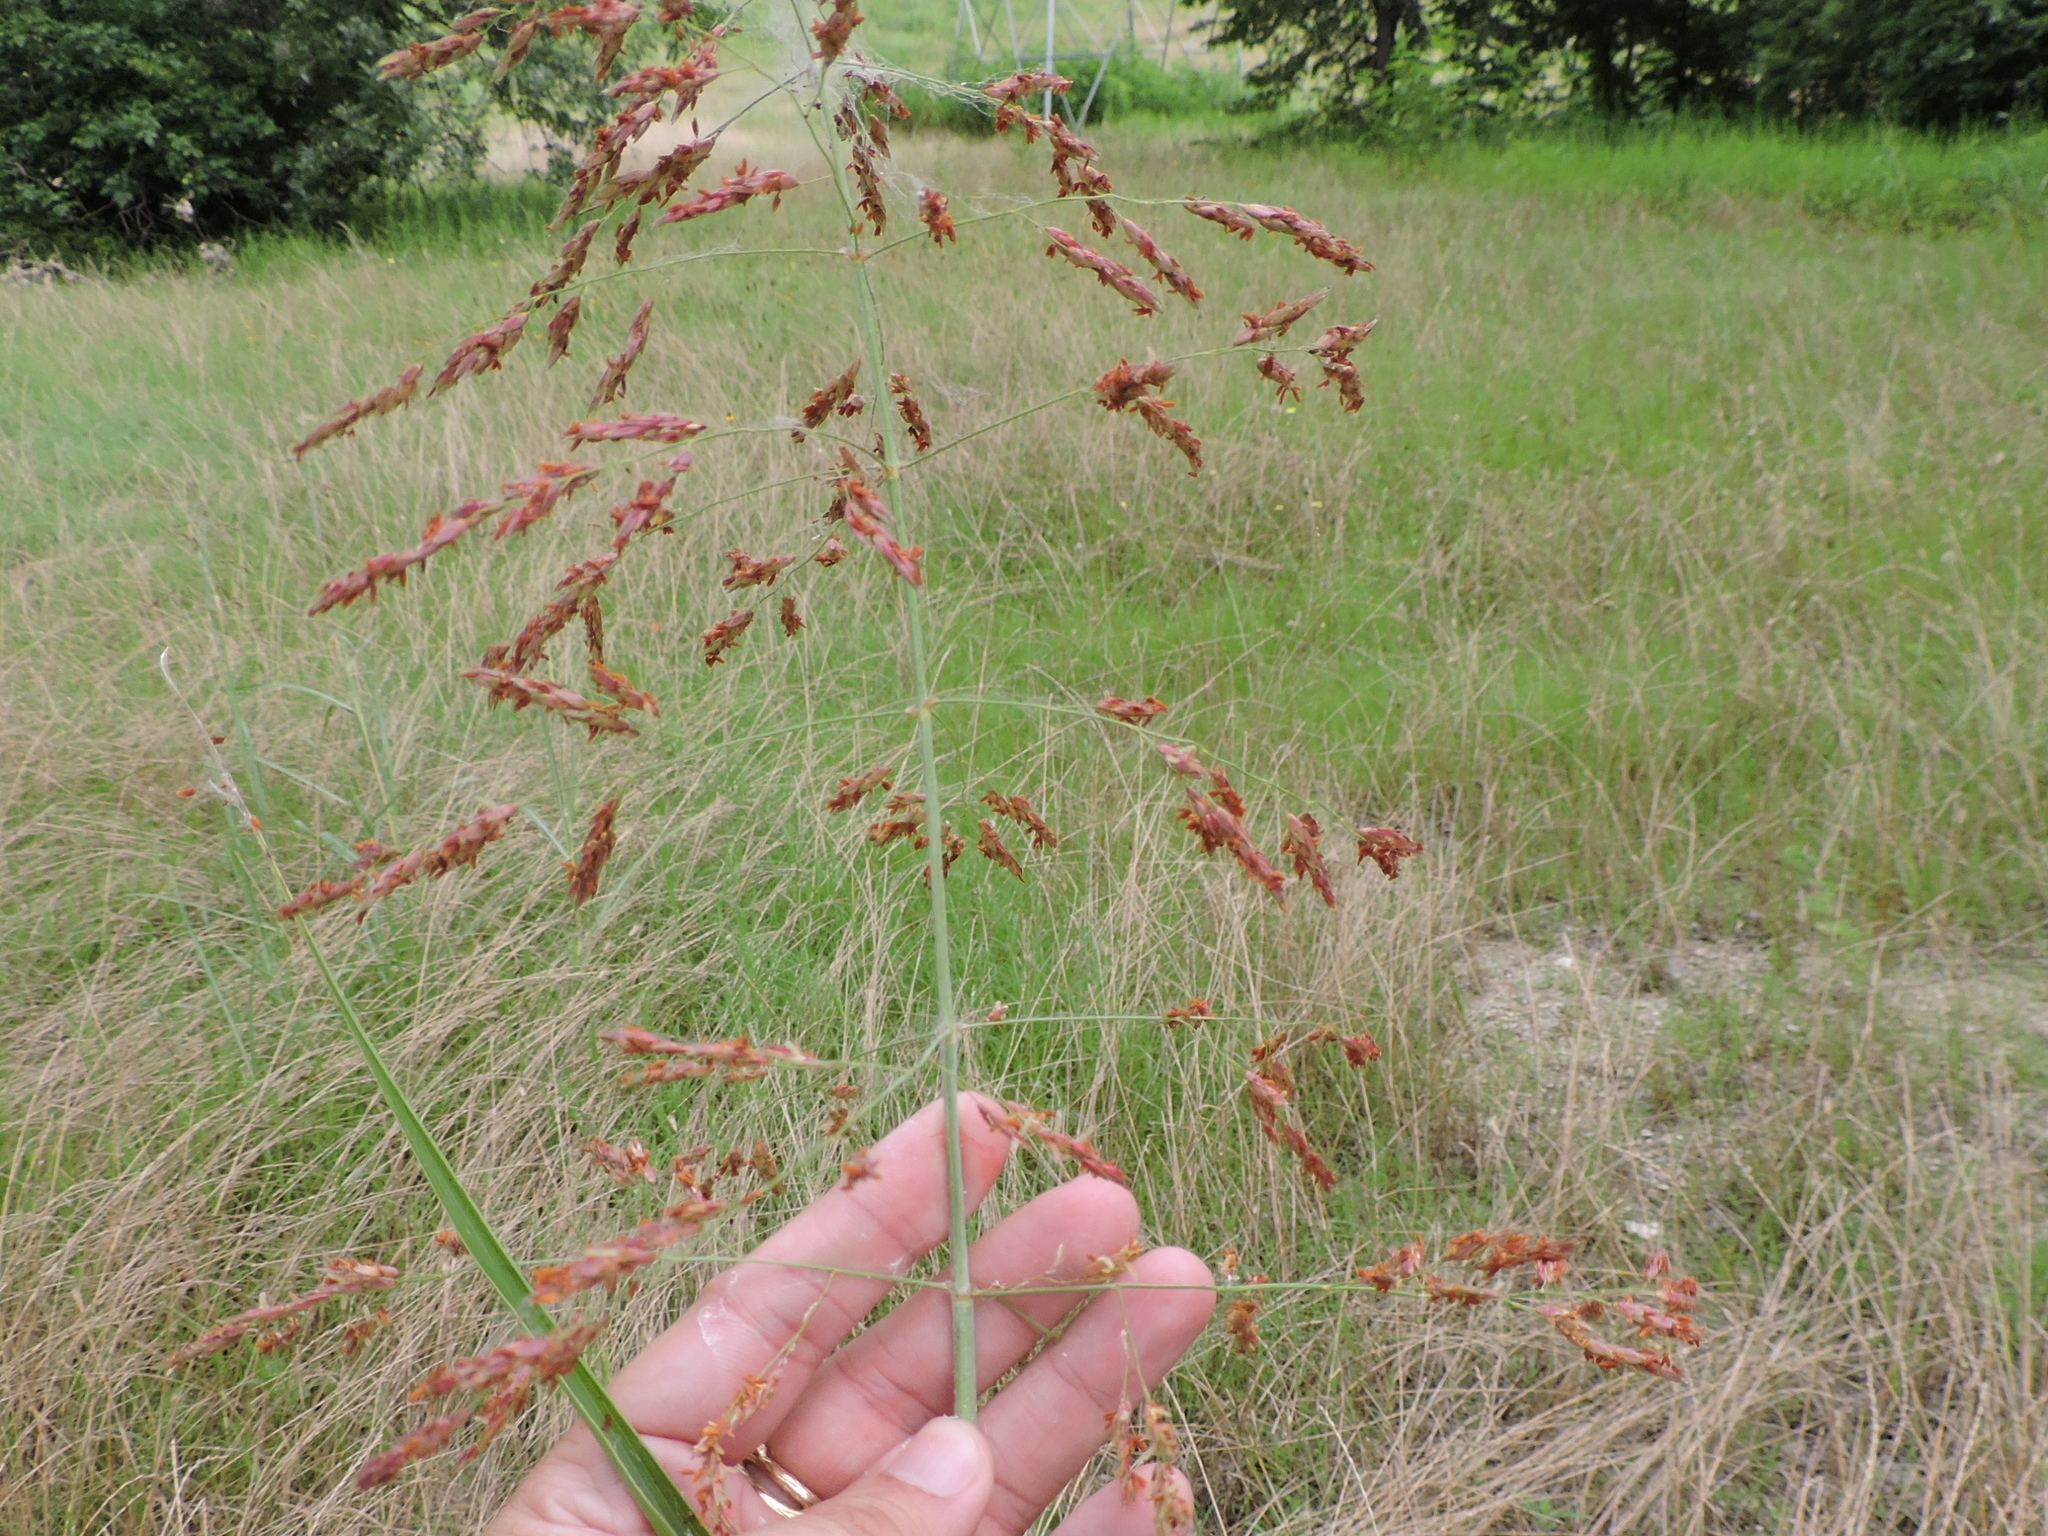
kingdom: Plantae
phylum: Tracheophyta
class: Liliopsida
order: Poales
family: Poaceae
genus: Sorghum
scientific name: Sorghum halepense
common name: Johnson-grass
